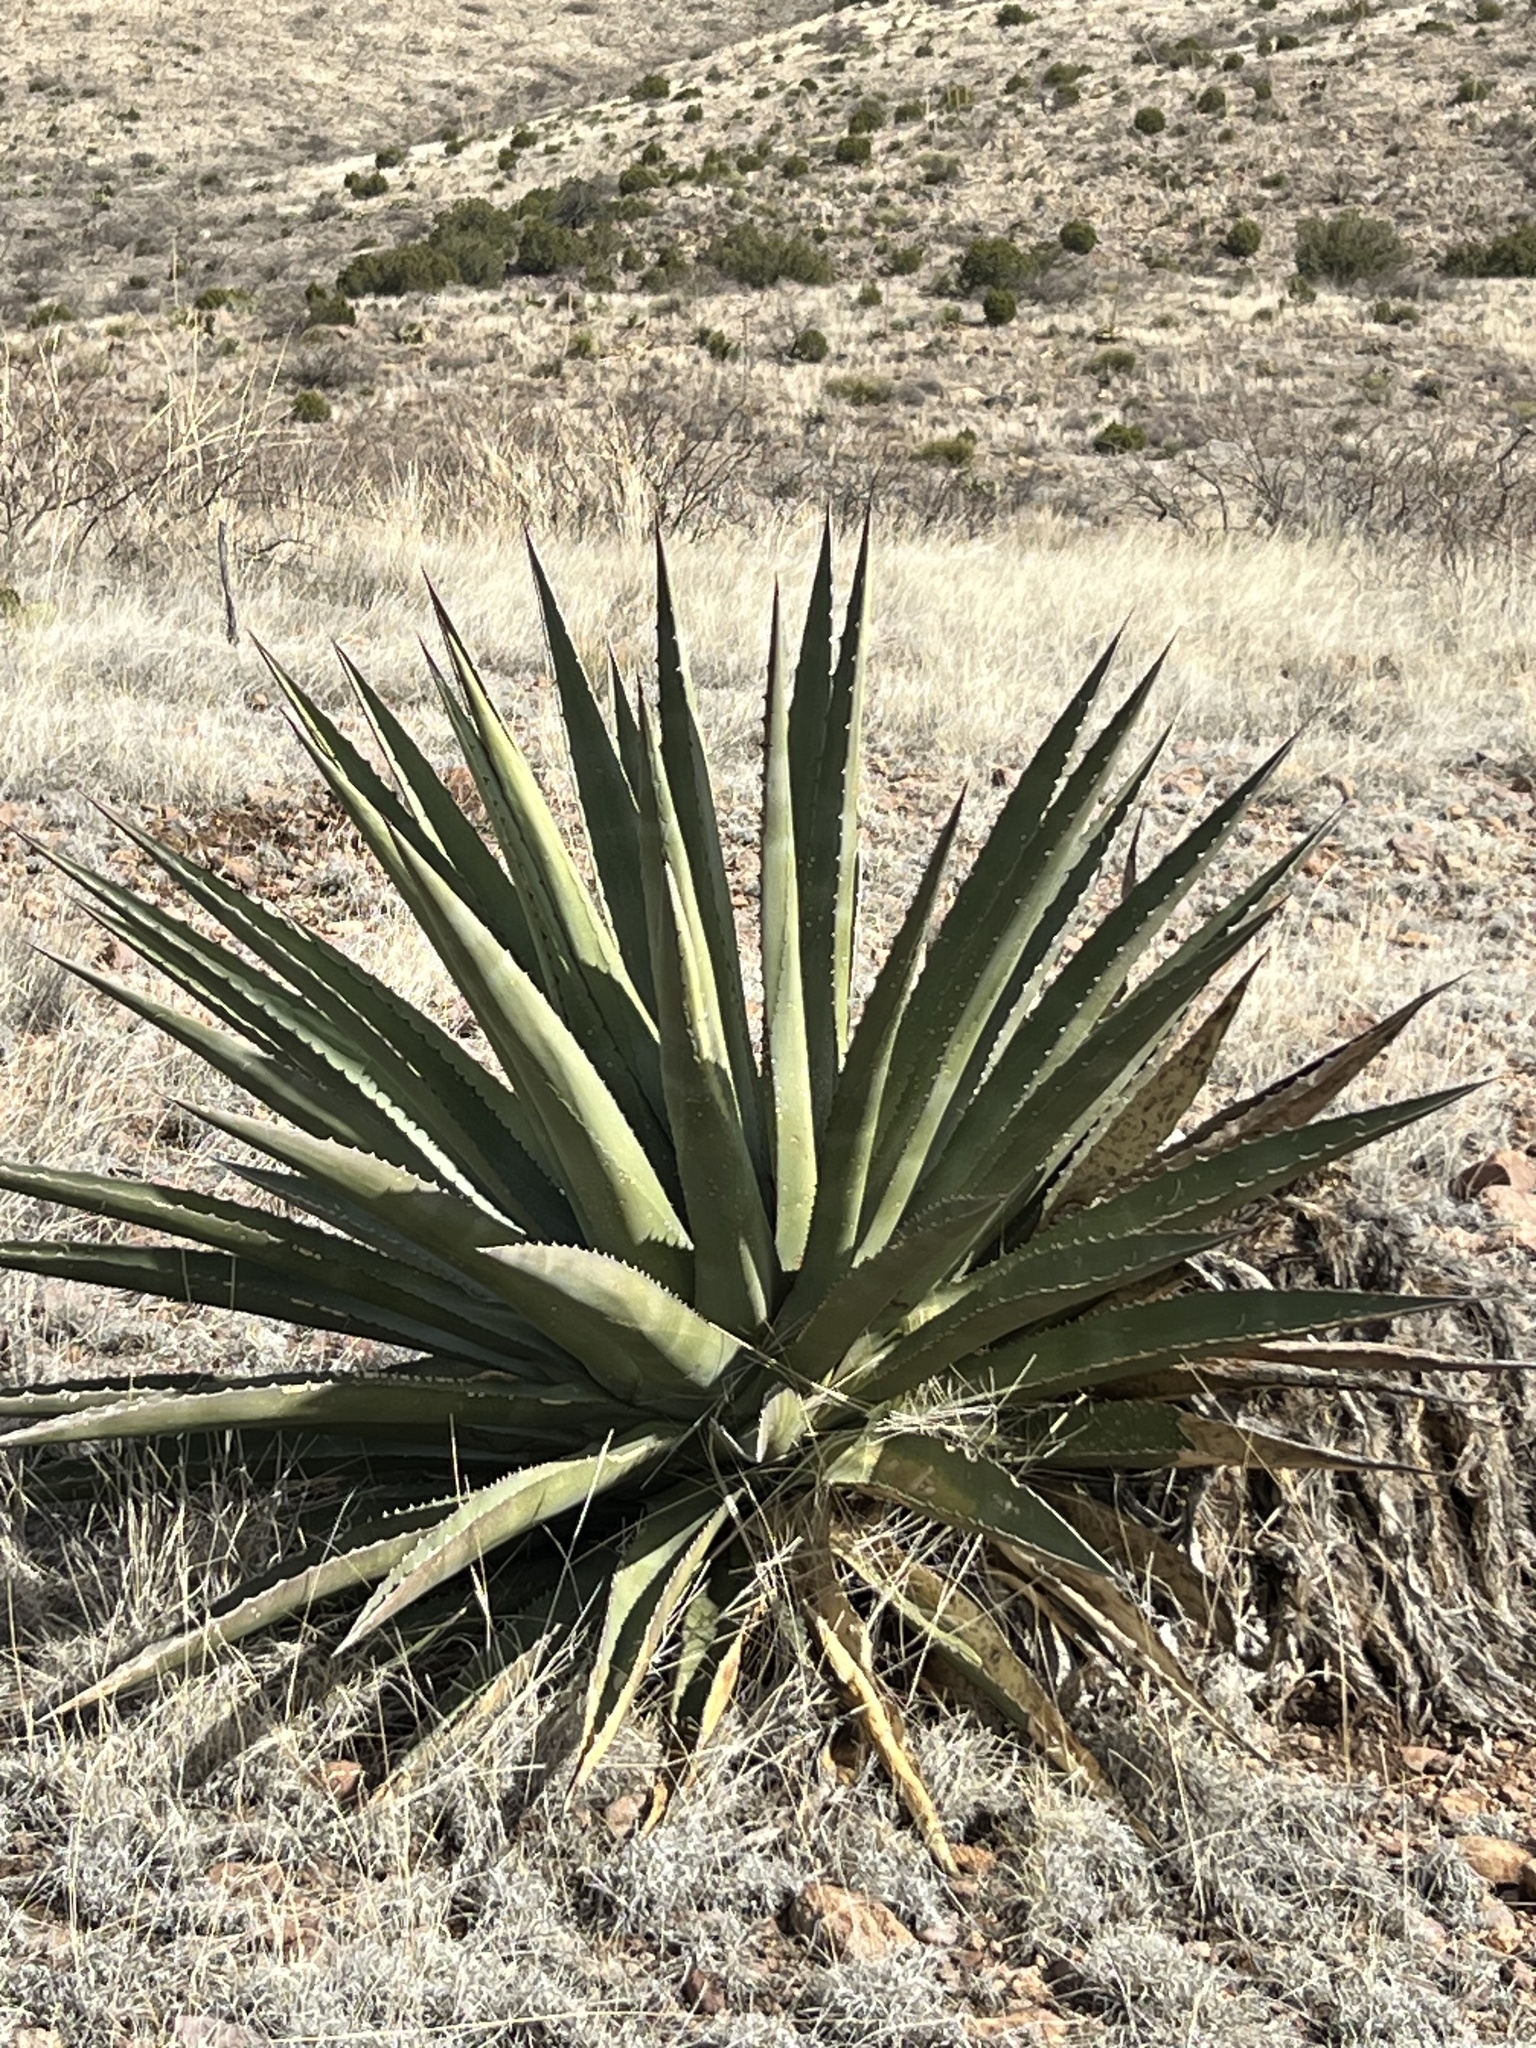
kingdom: Plantae
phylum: Tracheophyta
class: Liliopsida
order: Asparagales
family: Asparagaceae
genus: Agave
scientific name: Agave palmeri
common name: Palmer agave
